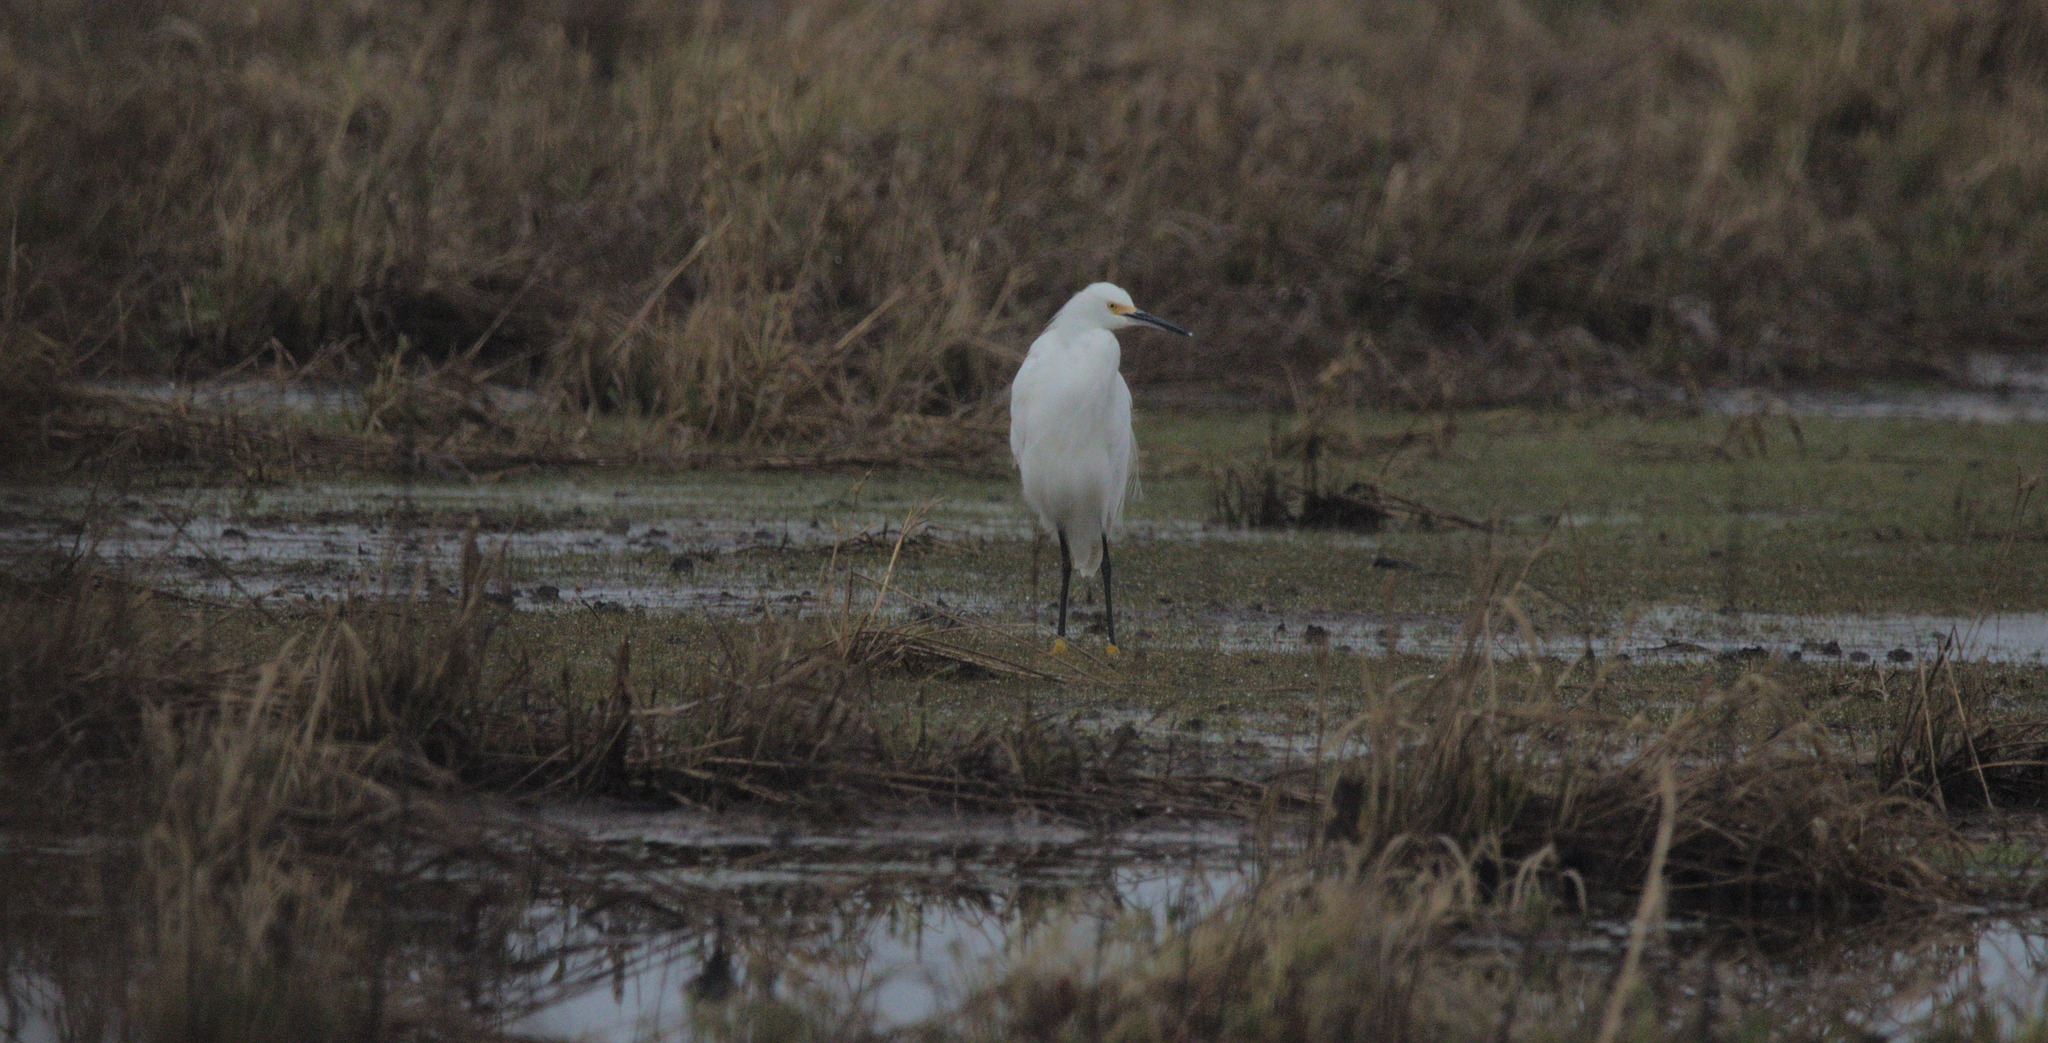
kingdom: Animalia
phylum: Chordata
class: Aves
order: Pelecaniformes
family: Ardeidae
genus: Egretta
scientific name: Egretta thula
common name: Snowy egret
